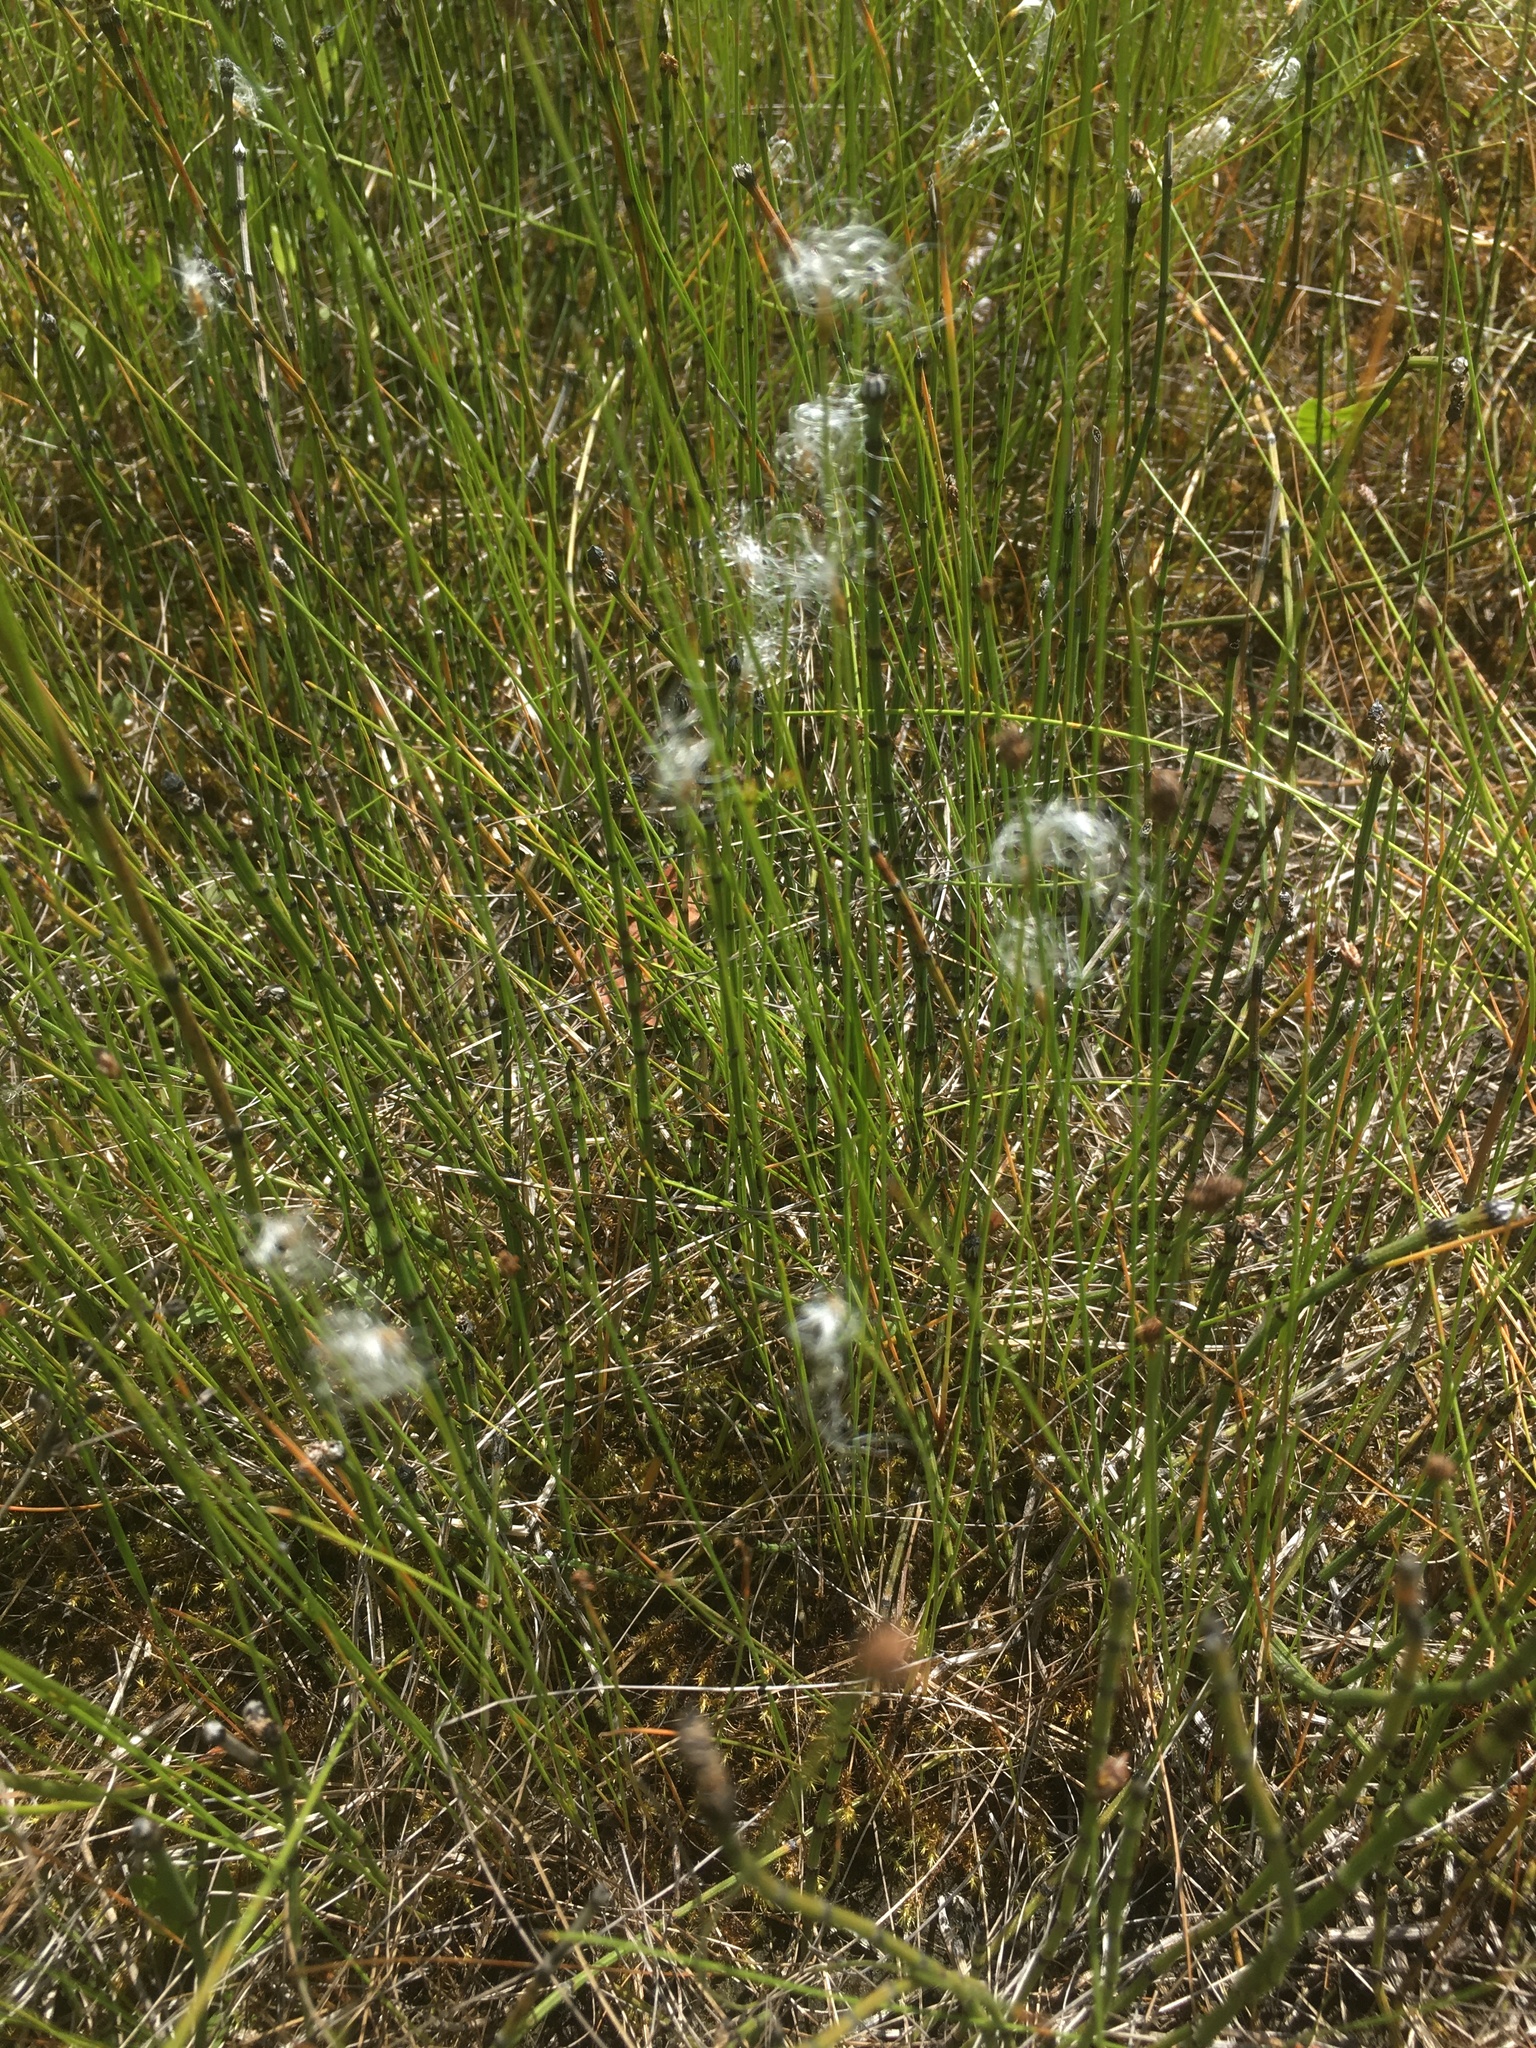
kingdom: Plantae
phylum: Tracheophyta
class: Liliopsida
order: Poales
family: Cyperaceae
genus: Trichophorum
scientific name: Trichophorum alpinum
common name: Alpine bulrush
